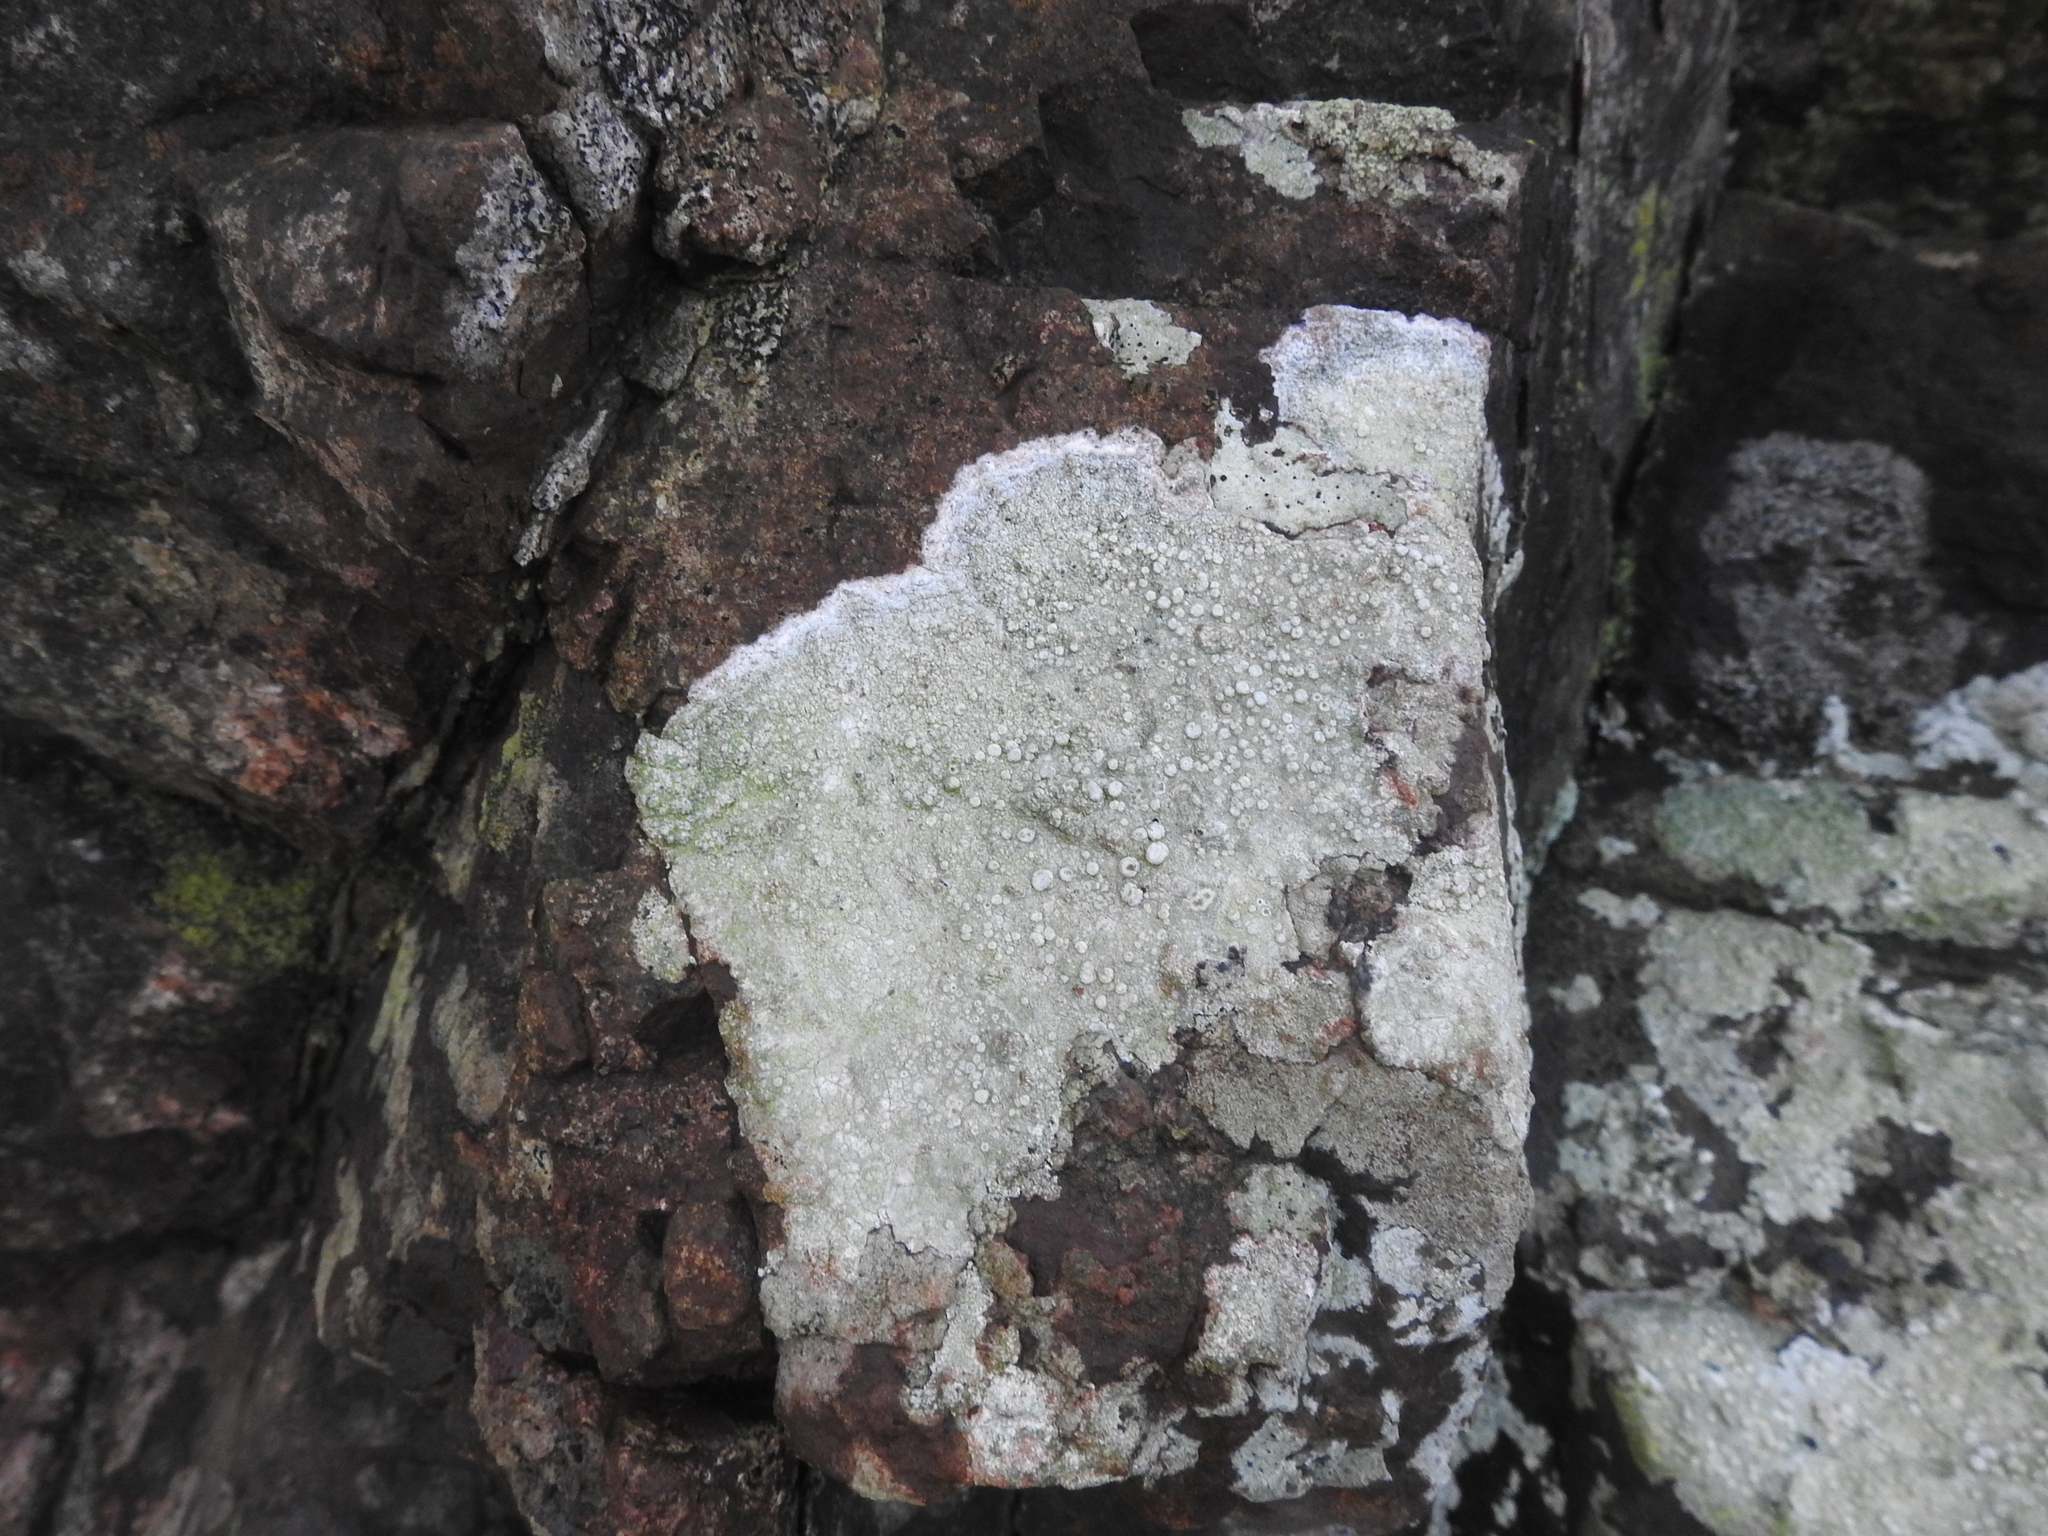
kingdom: Fungi
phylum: Ascomycota
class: Lecanoromycetes
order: Pertusariales
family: Ochrolechiaceae
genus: Ochrolechia
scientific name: Ochrolechia parella
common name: Crab's eye lichen
